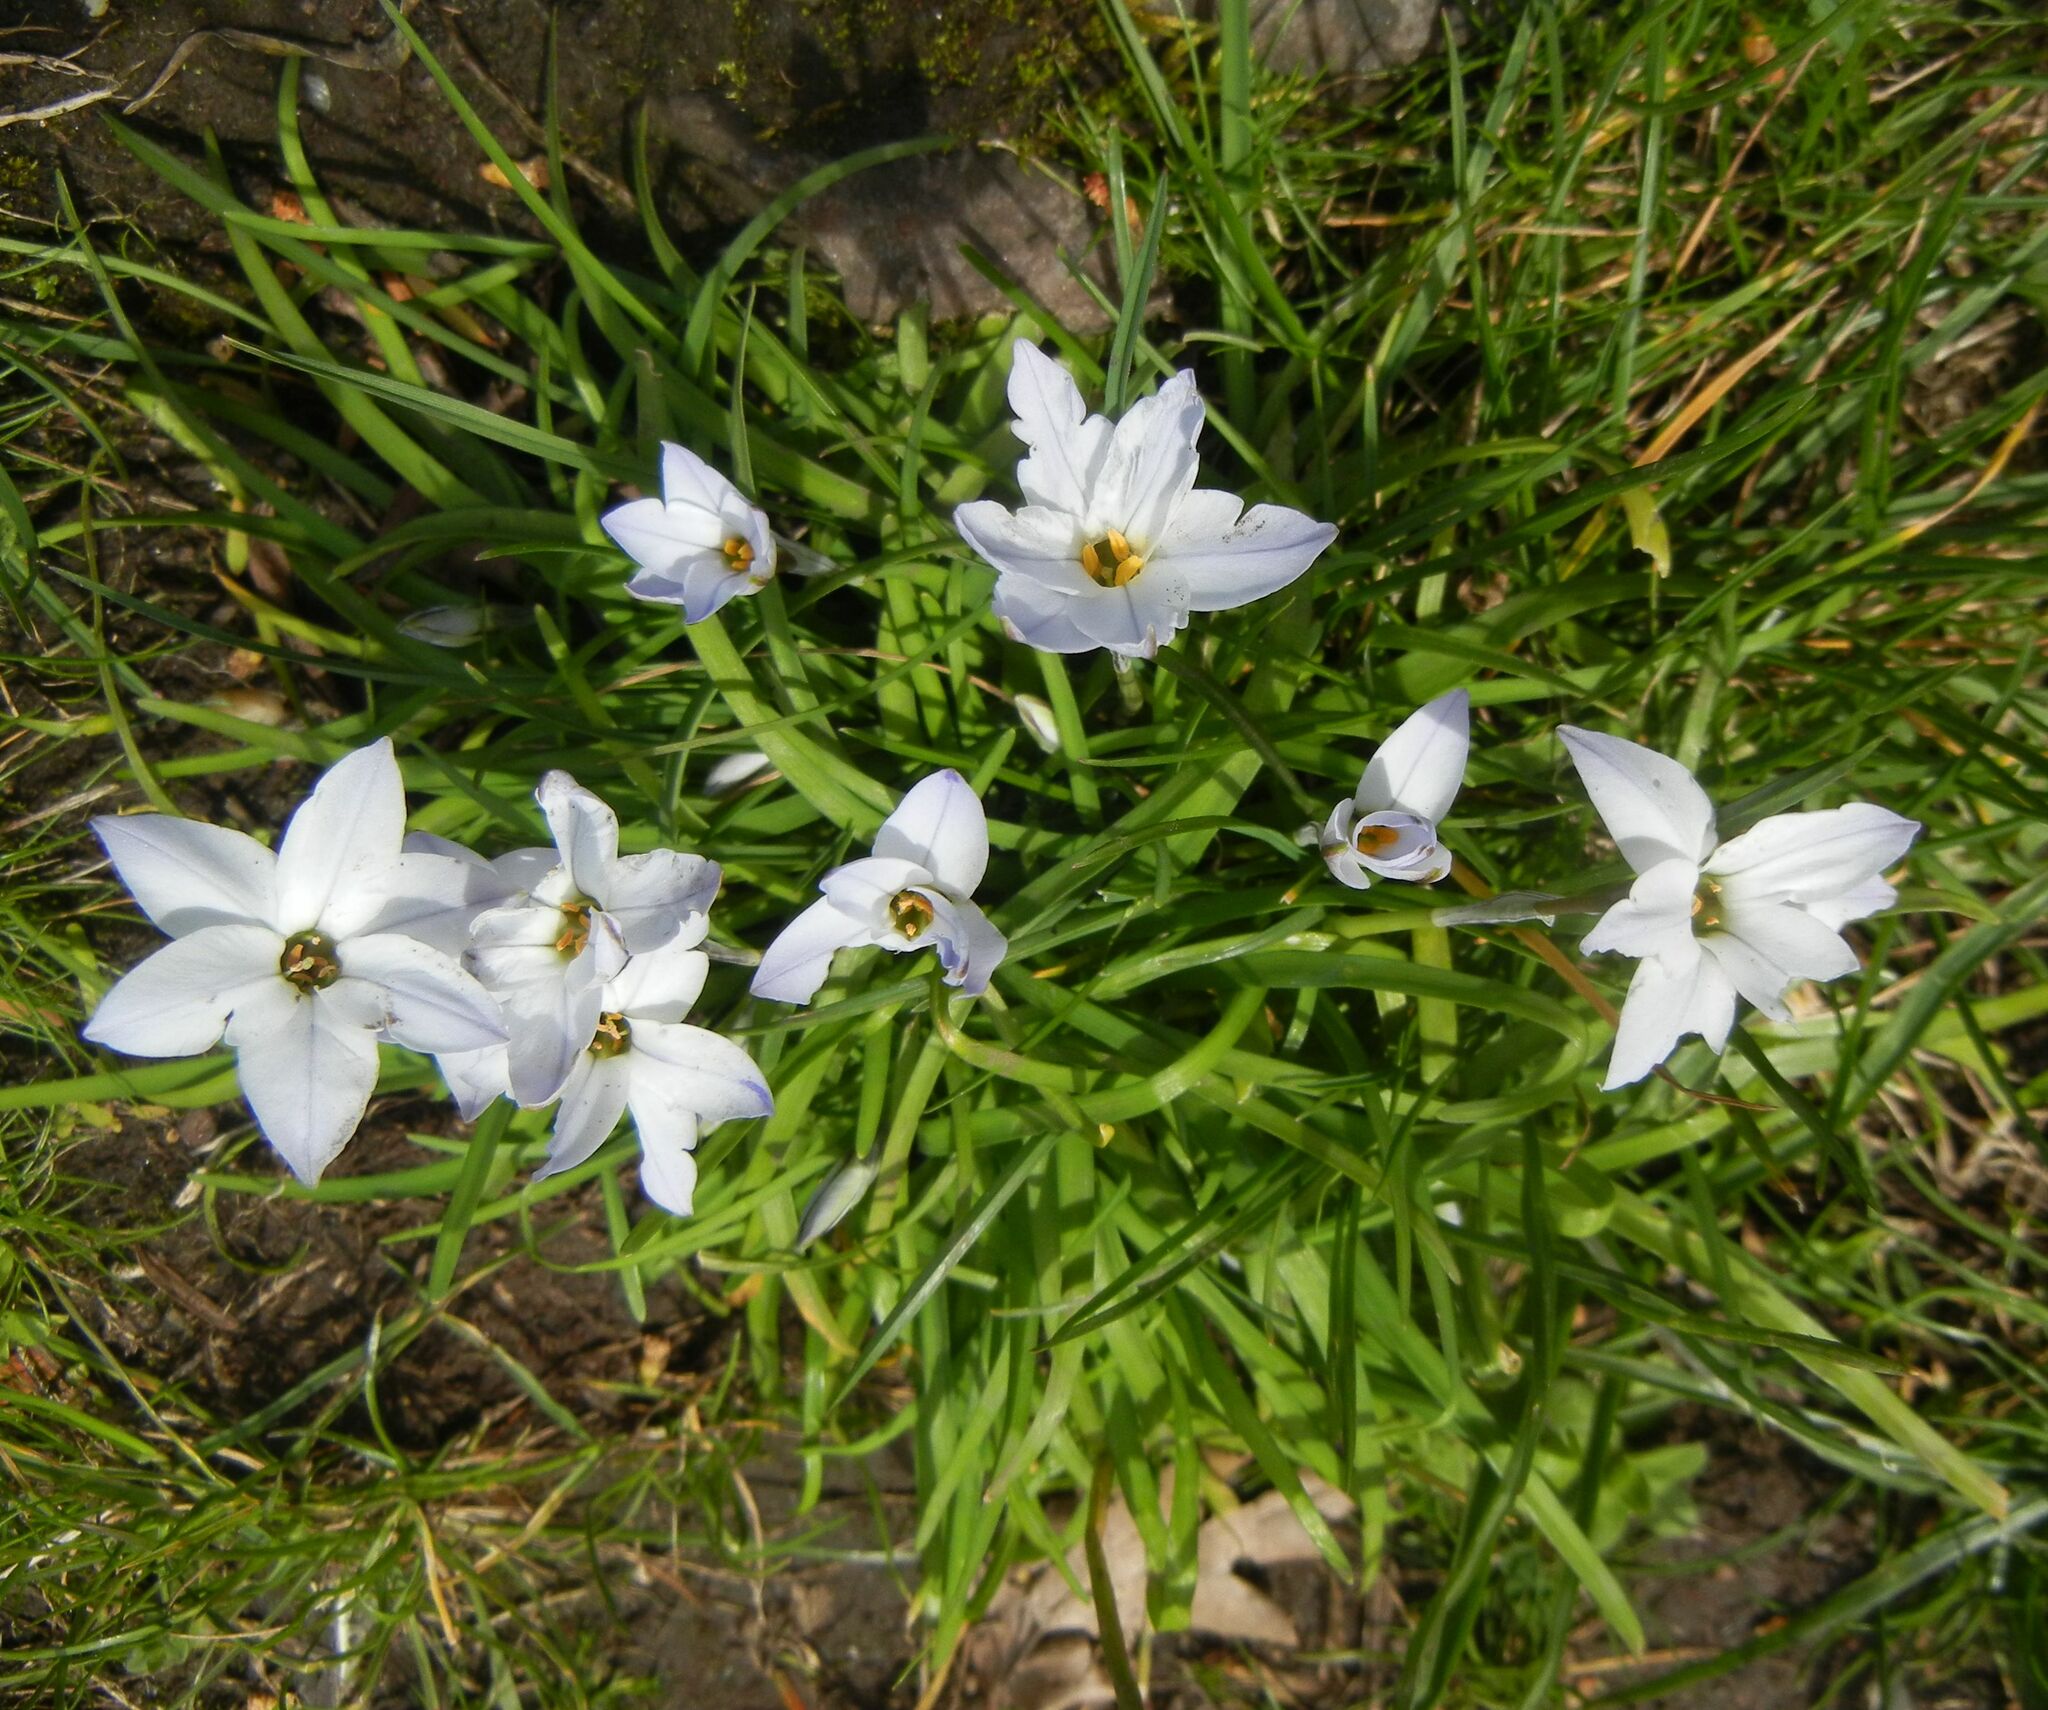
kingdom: Plantae
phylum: Tracheophyta
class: Liliopsida
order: Asparagales
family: Amaryllidaceae
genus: Ipheion
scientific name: Ipheion uniflorum
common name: Spring starflower
